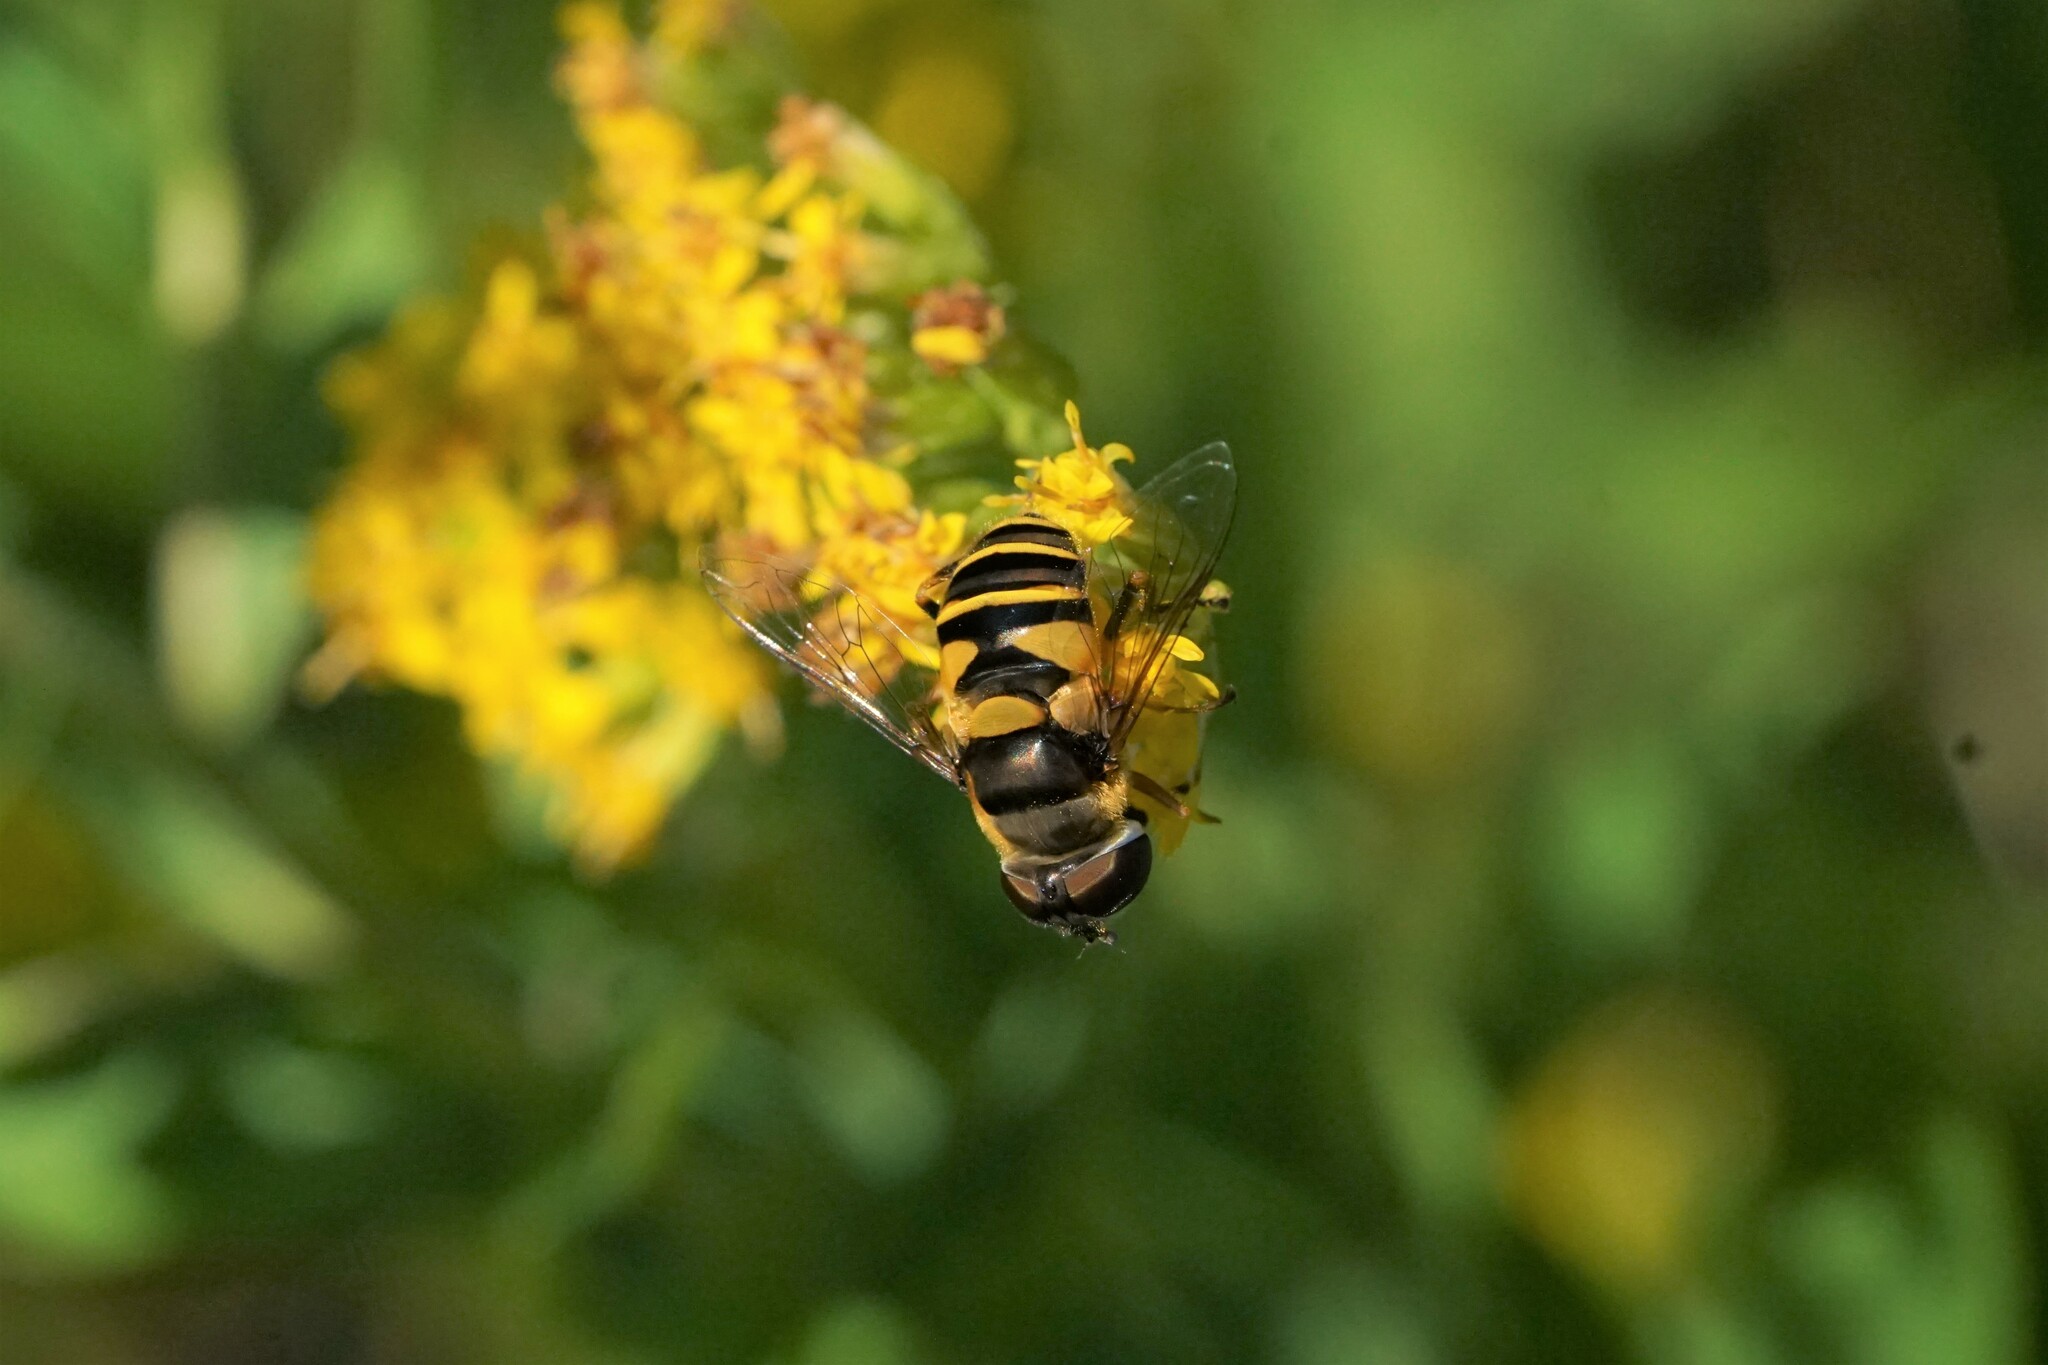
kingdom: Animalia
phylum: Arthropoda
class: Insecta
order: Diptera
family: Syrphidae
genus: Eristalis
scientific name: Eristalis transversa
